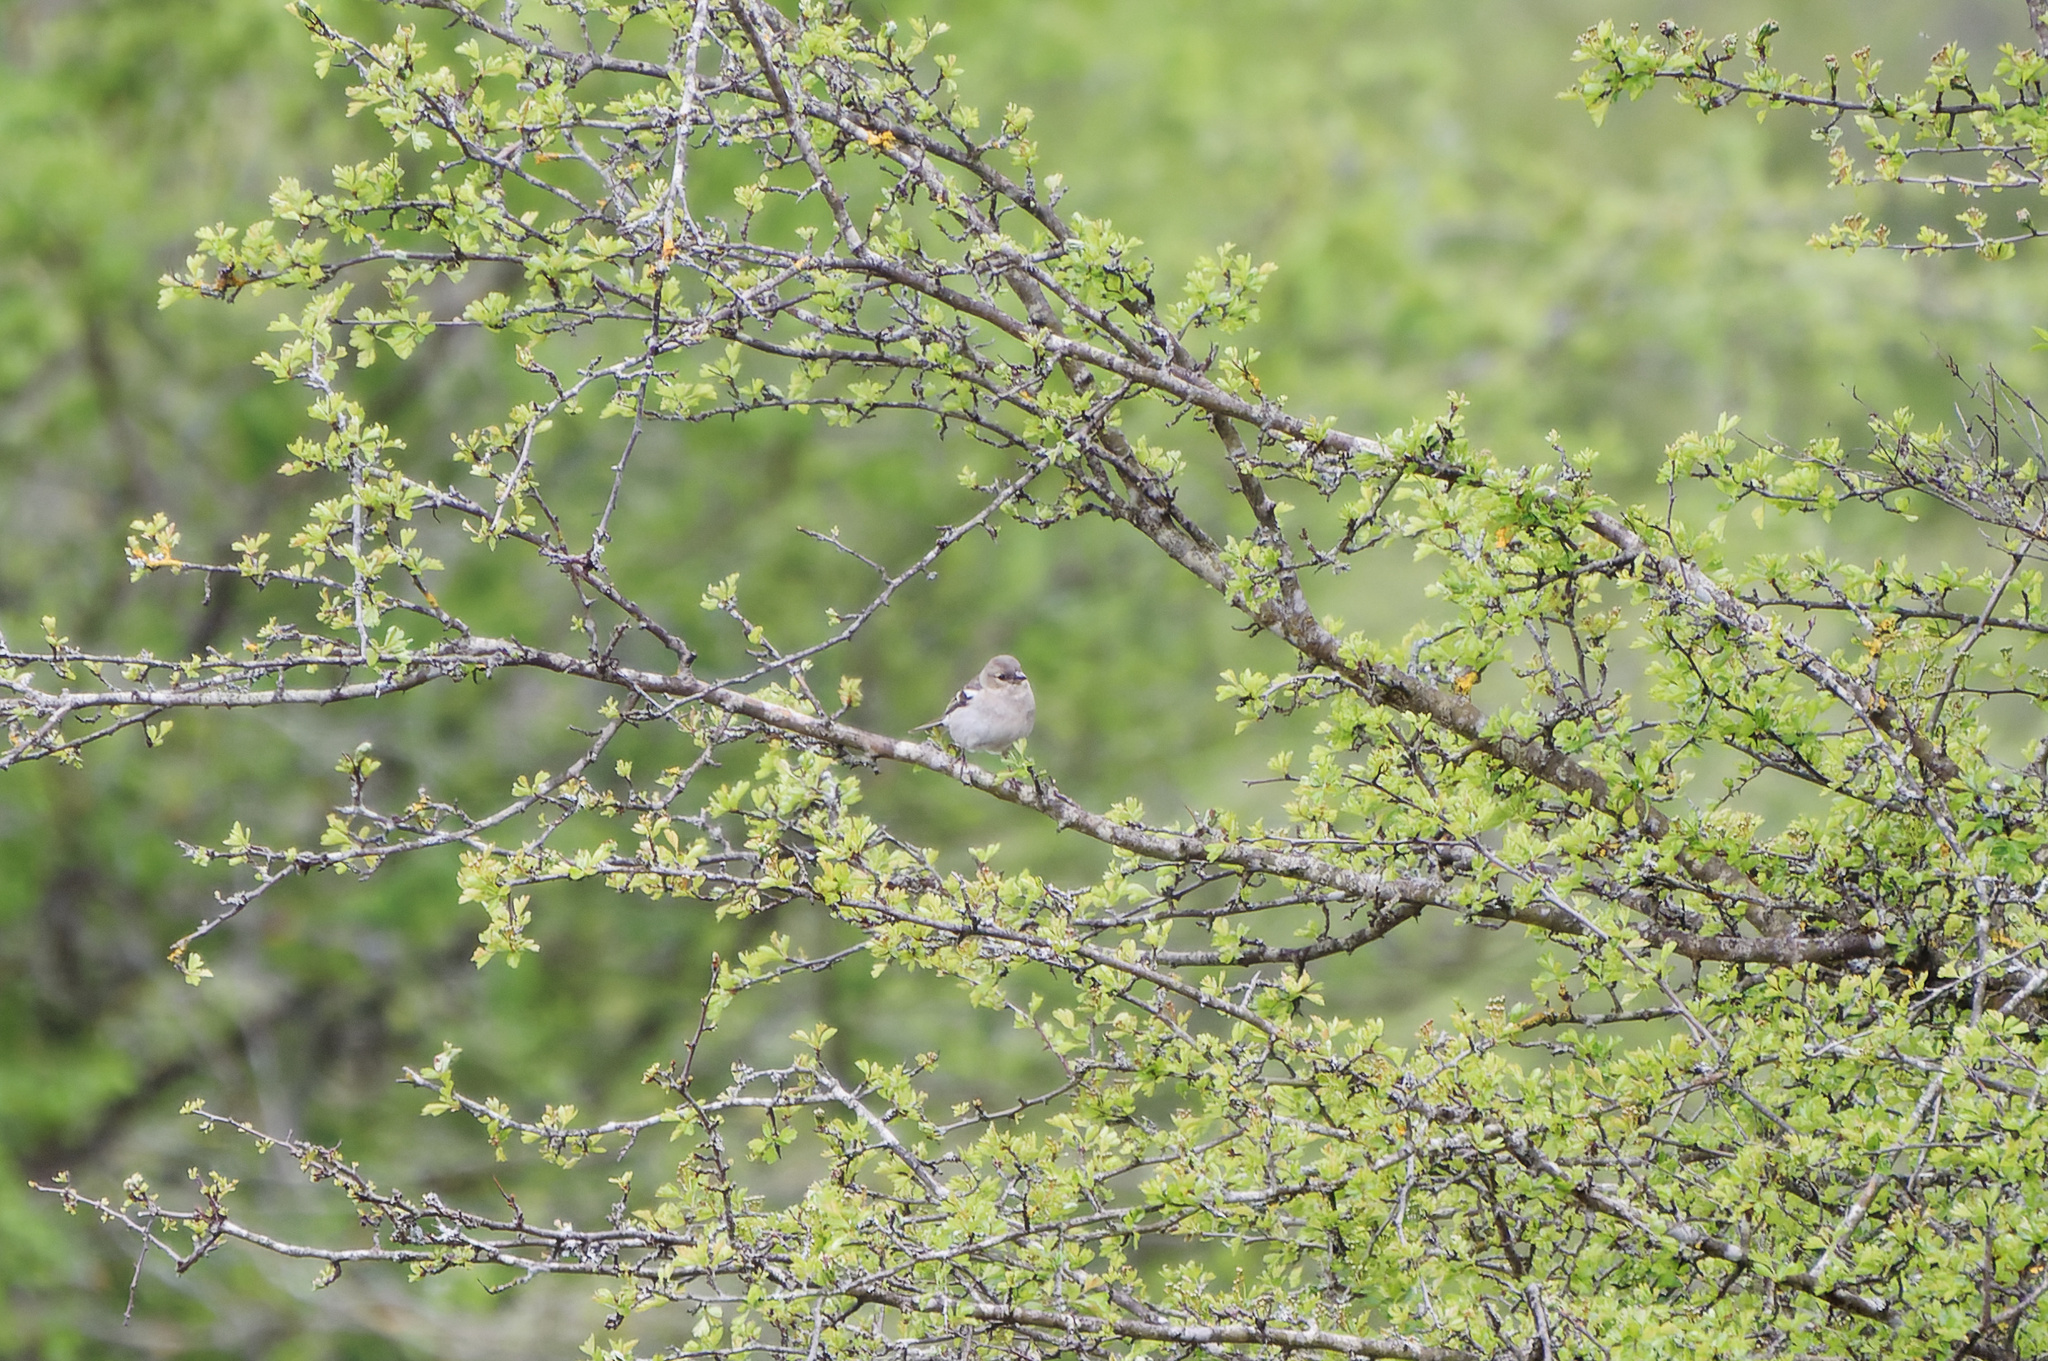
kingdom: Animalia
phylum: Chordata
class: Aves
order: Passeriformes
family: Fringillidae
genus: Fringilla
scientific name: Fringilla coelebs
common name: Common chaffinch
